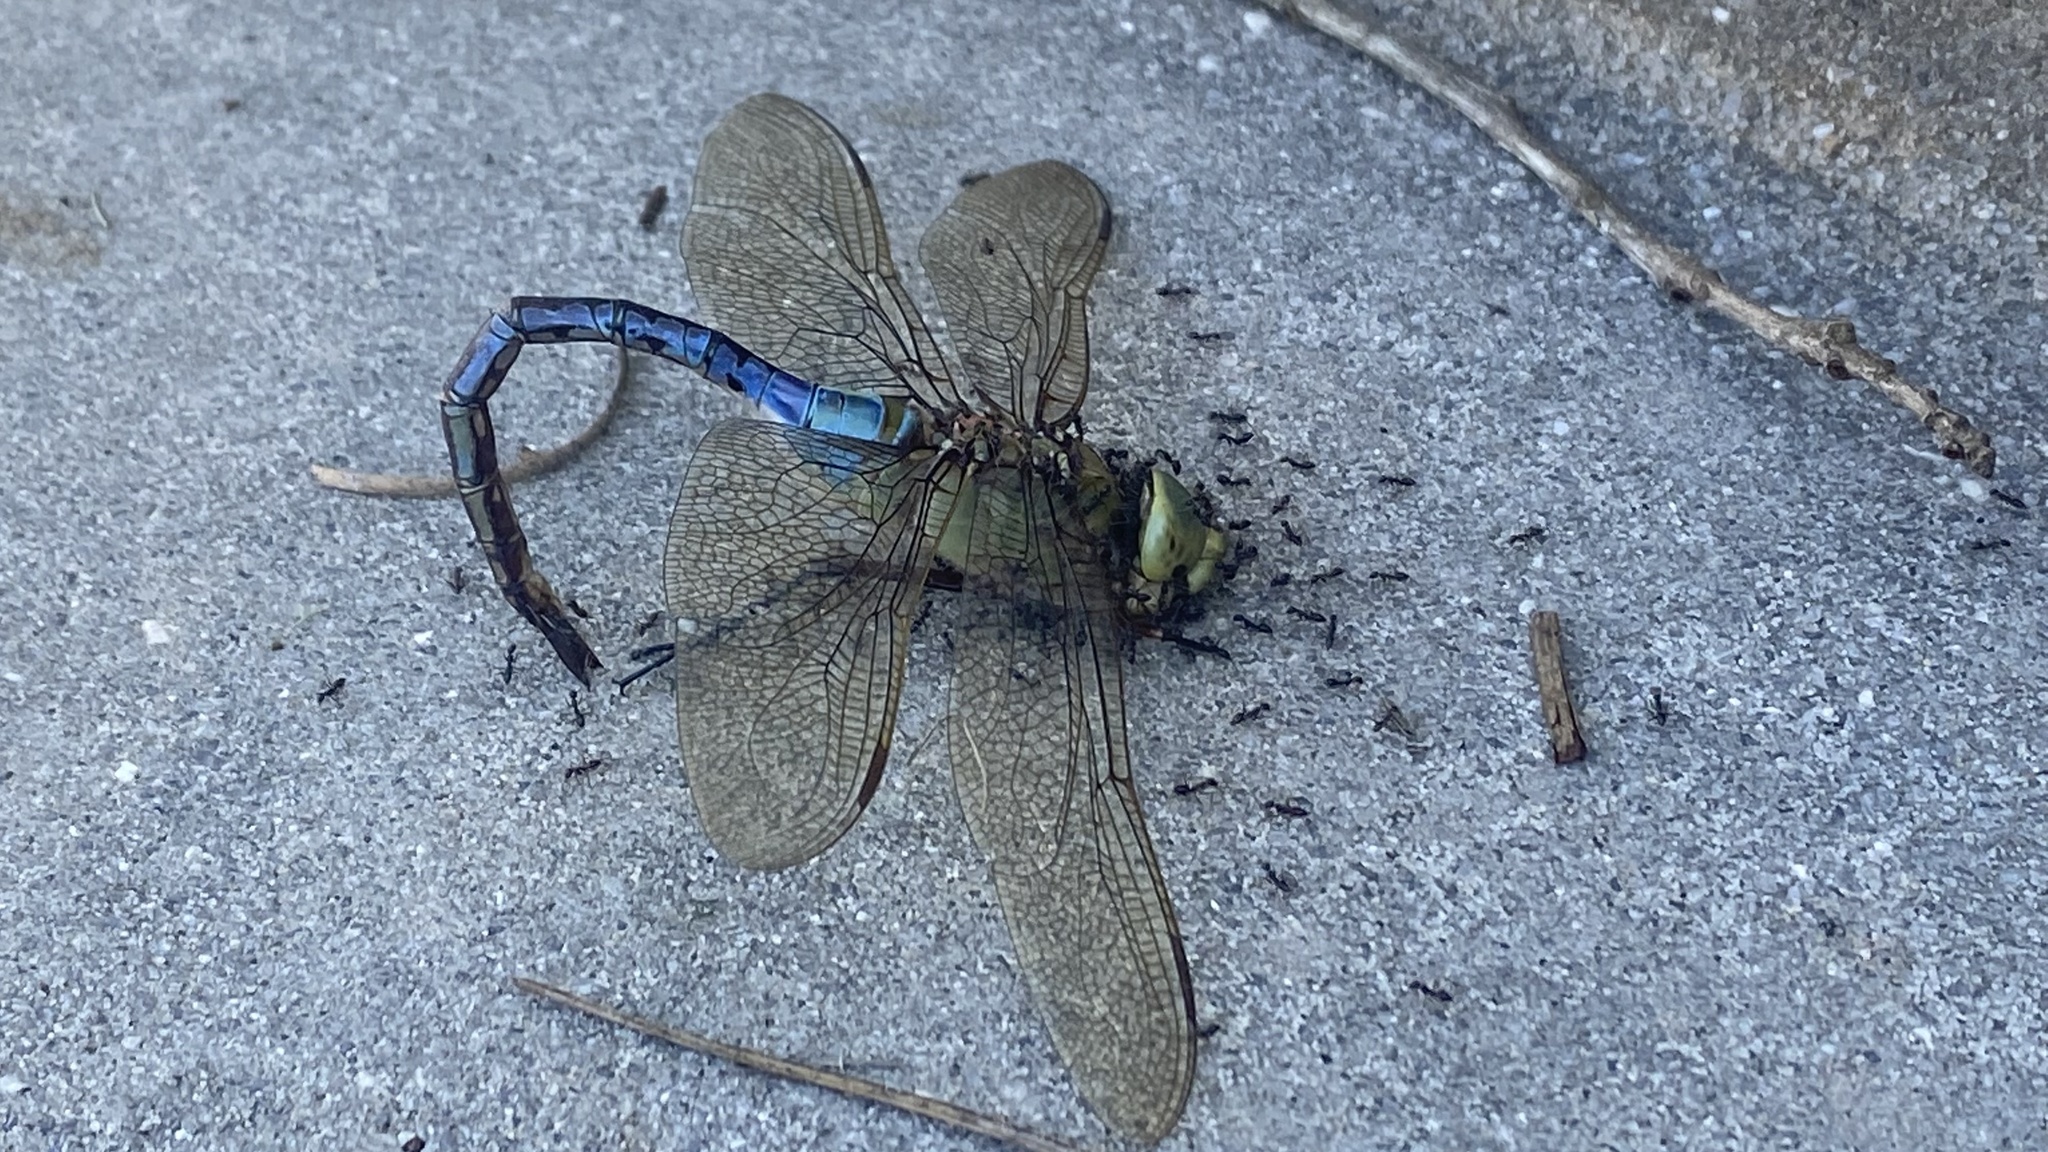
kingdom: Animalia
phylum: Arthropoda
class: Insecta
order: Odonata
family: Aeshnidae
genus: Anax
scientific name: Anax junius
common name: Common green darner
